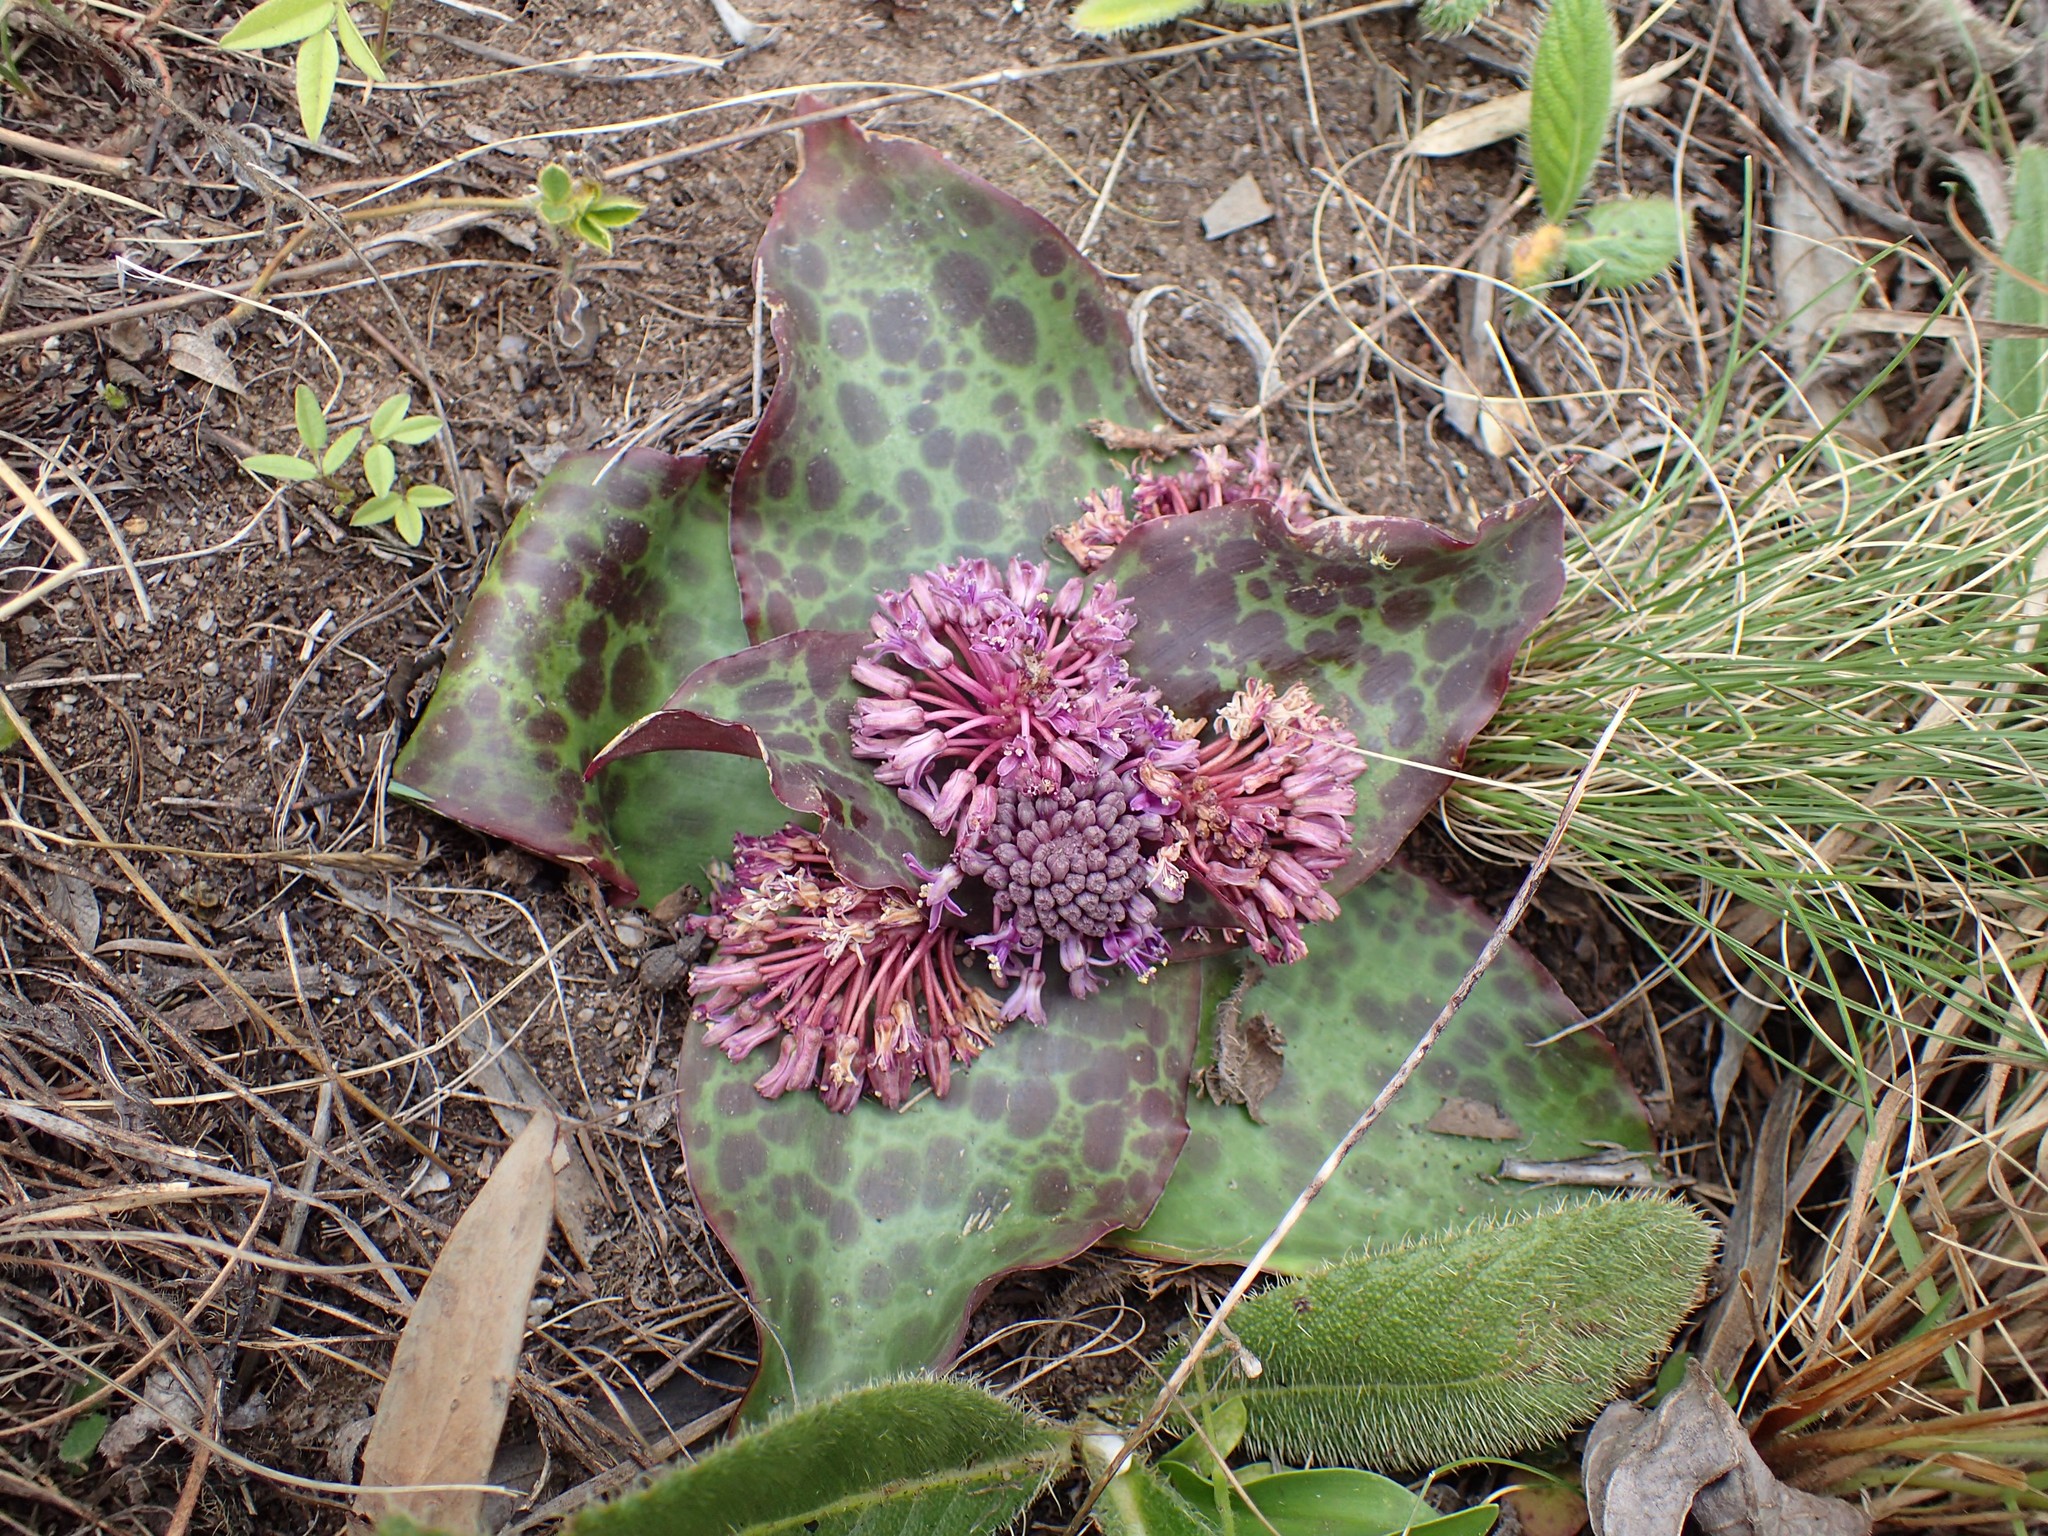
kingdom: Plantae
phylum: Tracheophyta
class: Liliopsida
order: Asparagales
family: Asparagaceae
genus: Ledebouria
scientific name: Ledebouria ovatifolia
